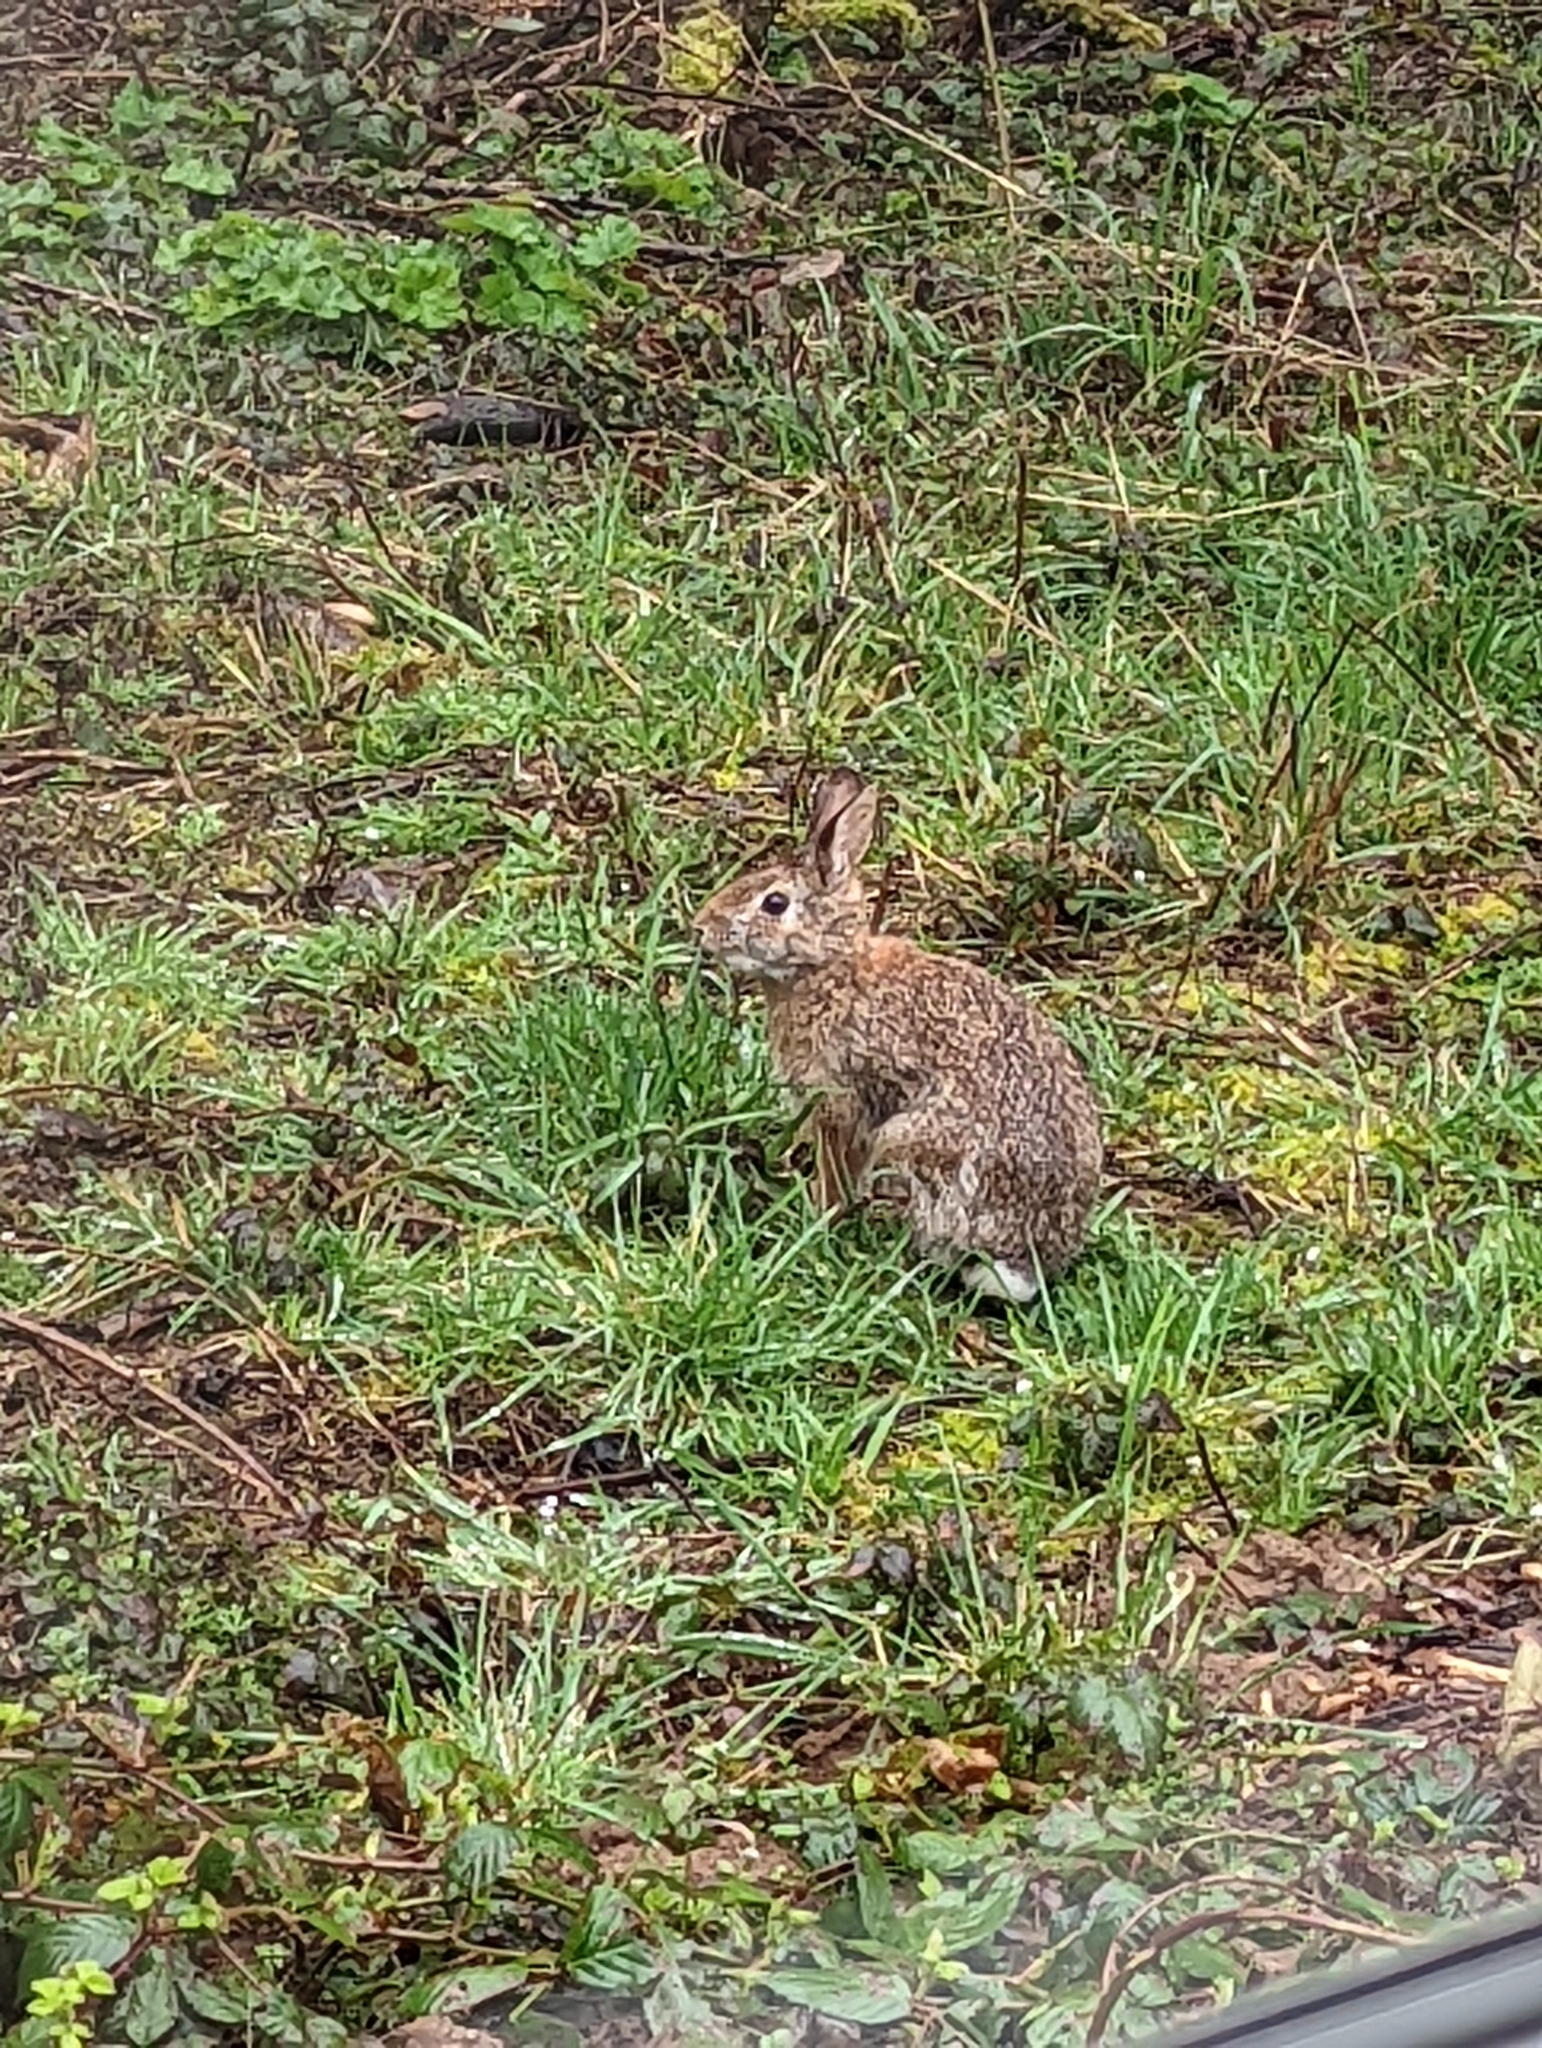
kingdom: Animalia
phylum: Chordata
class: Mammalia
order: Lagomorpha
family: Leporidae
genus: Sylvilagus
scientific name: Sylvilagus floridanus
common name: Eastern cottontail
